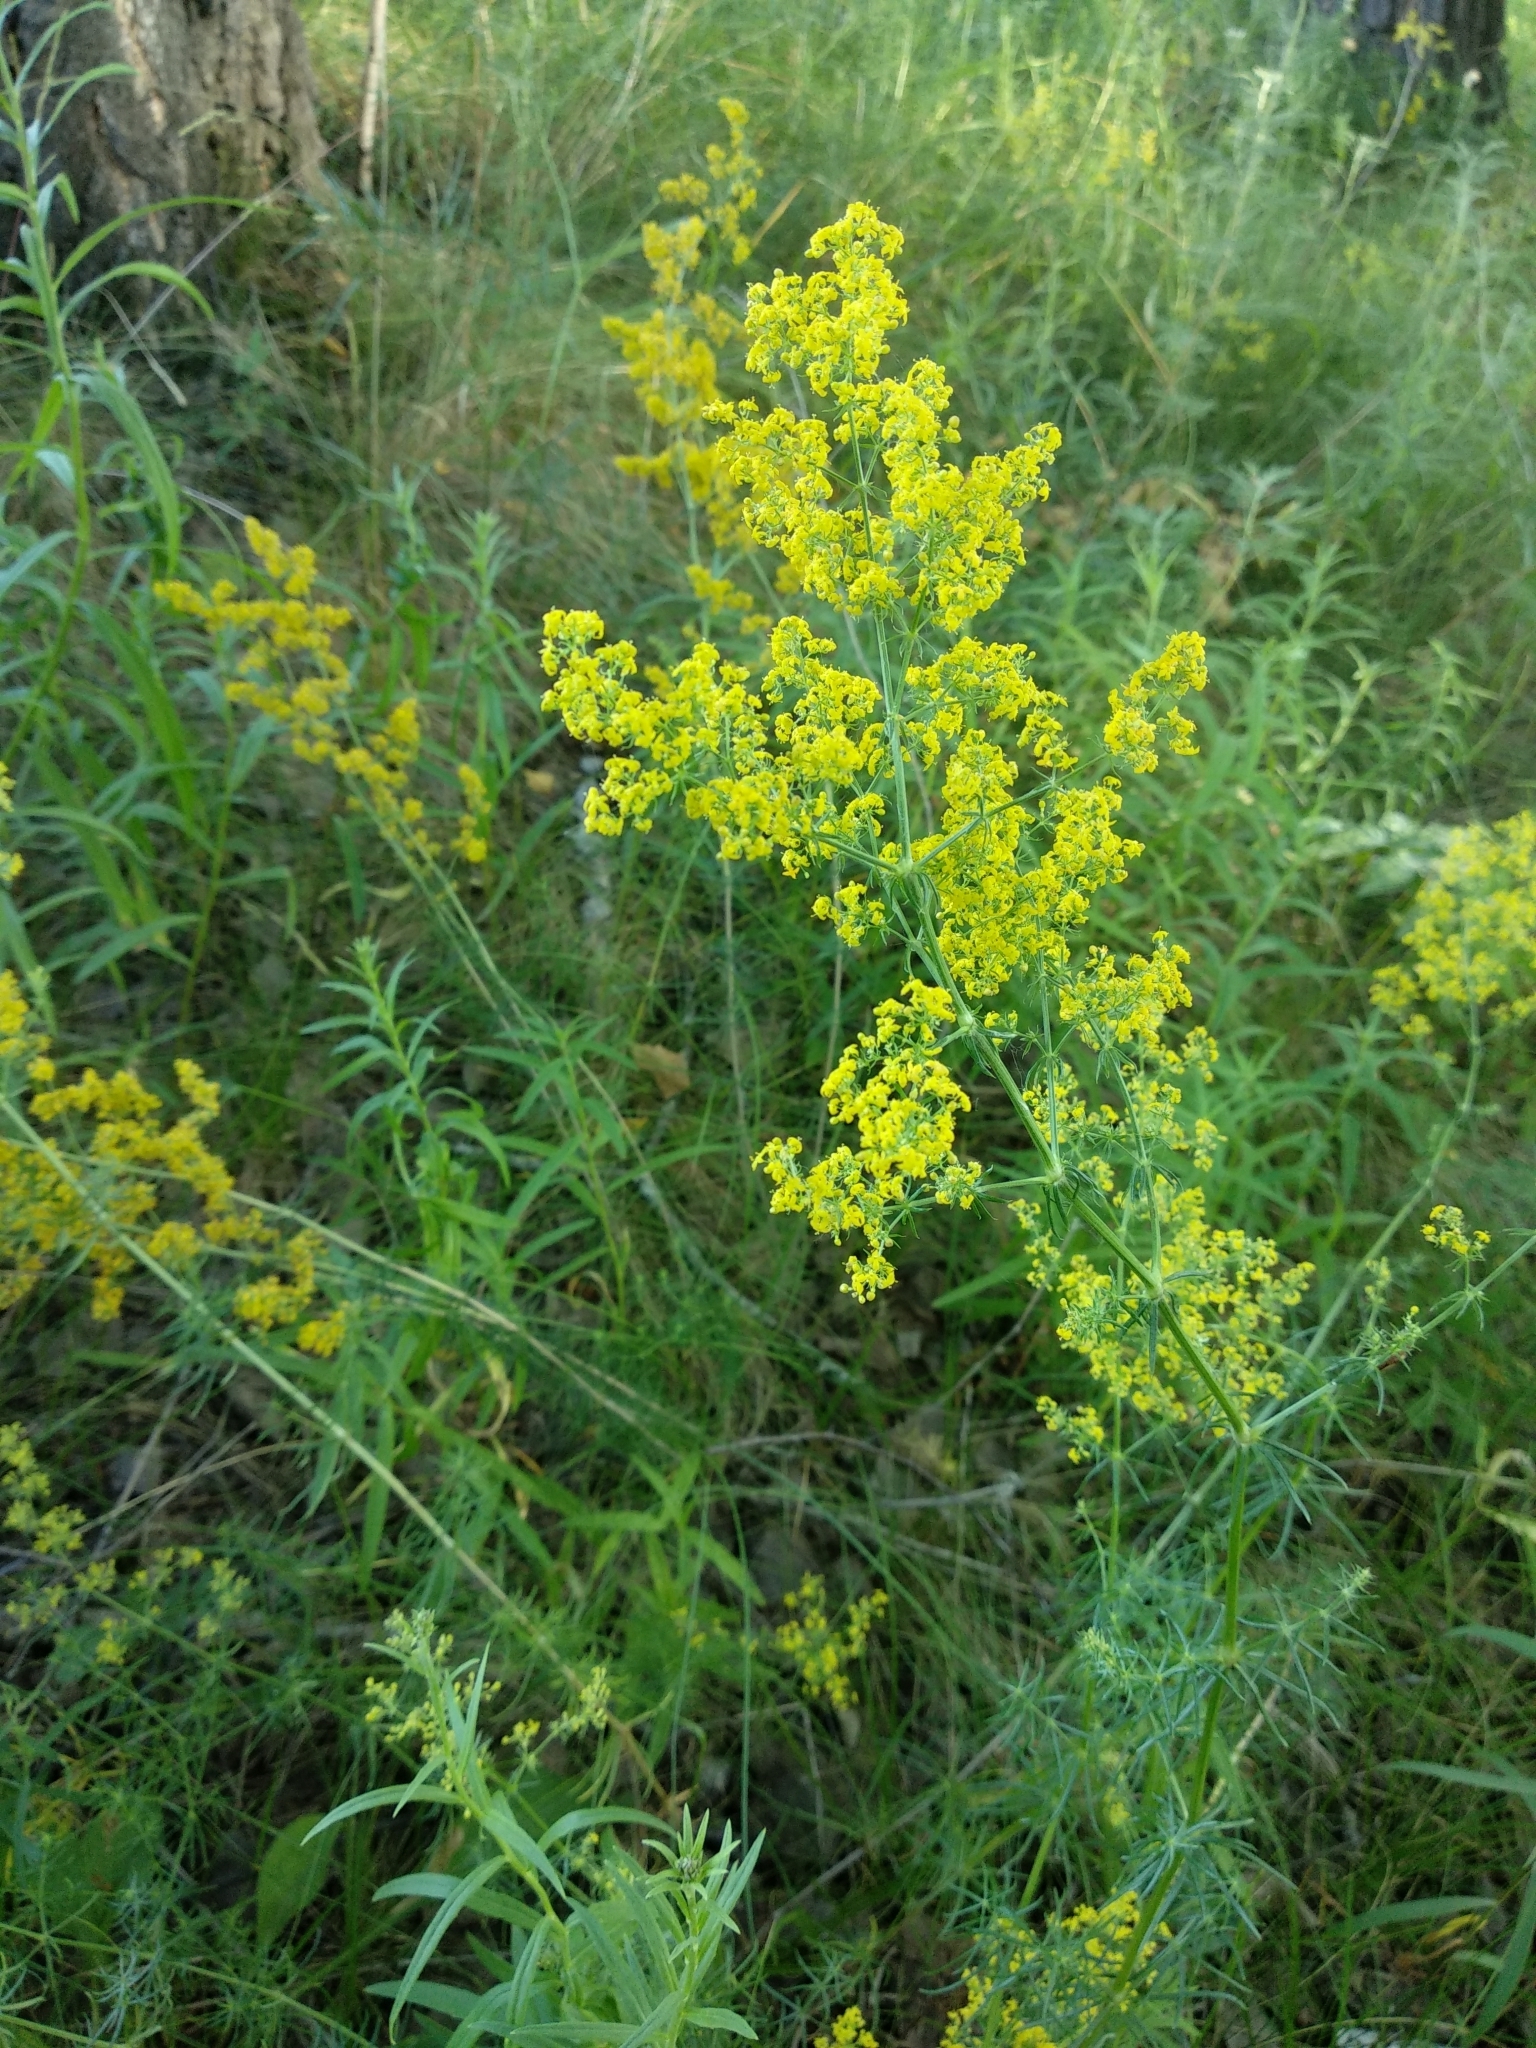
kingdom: Plantae
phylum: Tracheophyta
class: Magnoliopsida
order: Gentianales
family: Rubiaceae
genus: Galium
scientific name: Galium verum
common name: Lady's bedstraw
